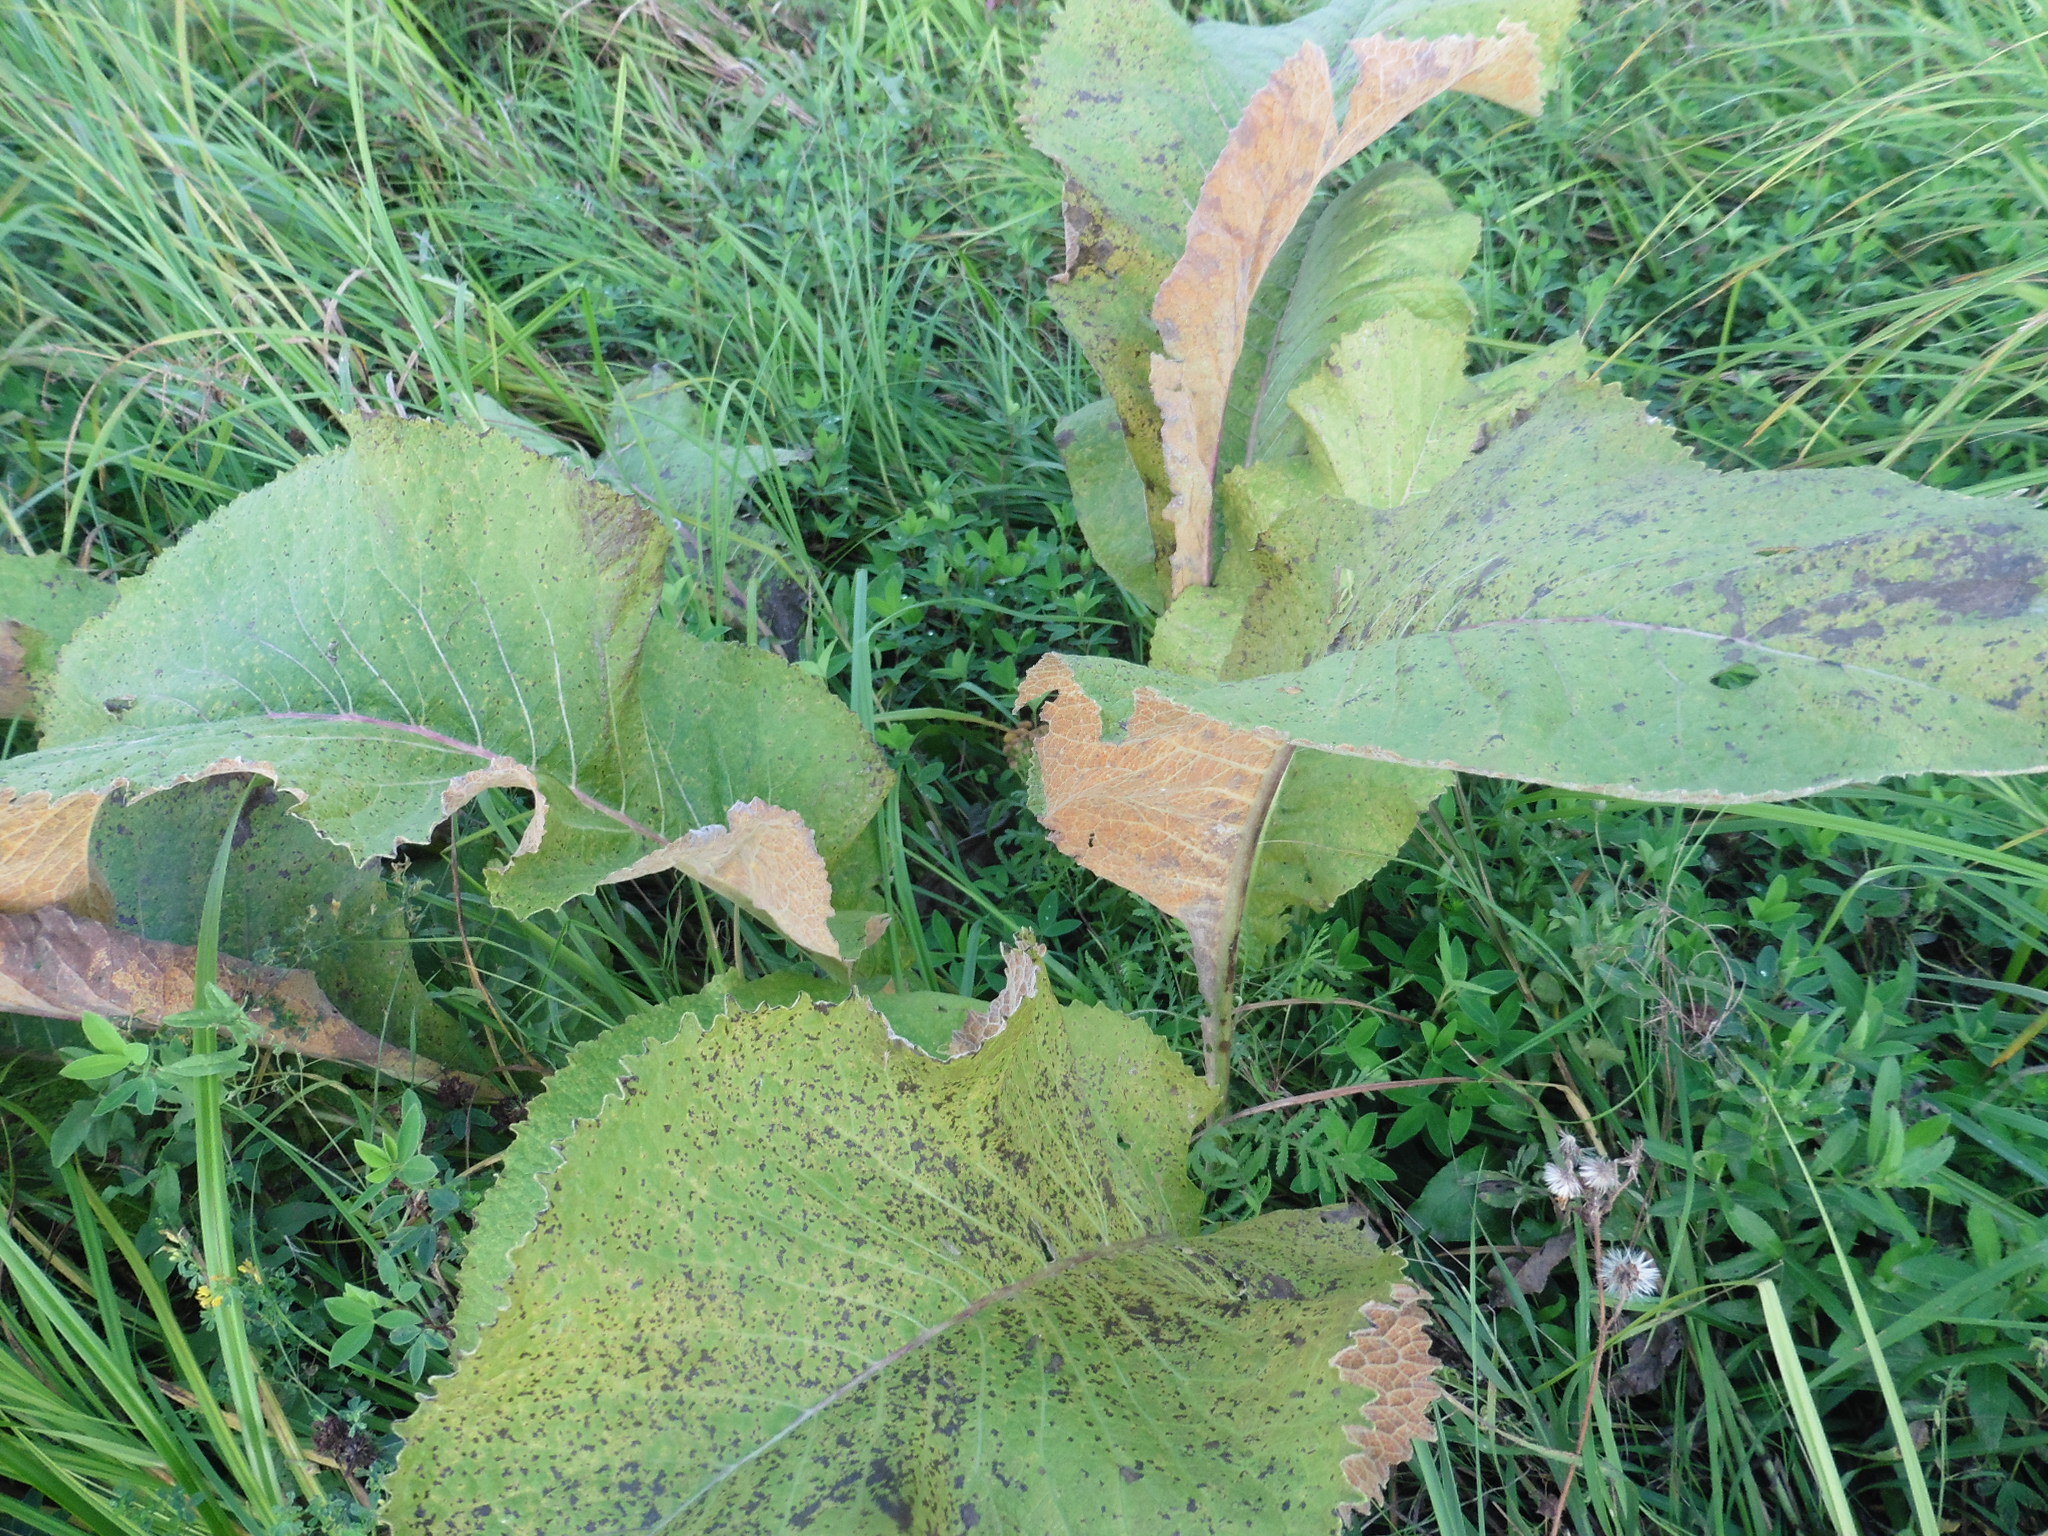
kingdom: Plantae
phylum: Tracheophyta
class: Magnoliopsida
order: Asterales
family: Asteraceae
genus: Inula
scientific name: Inula helenium
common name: Elecampane
